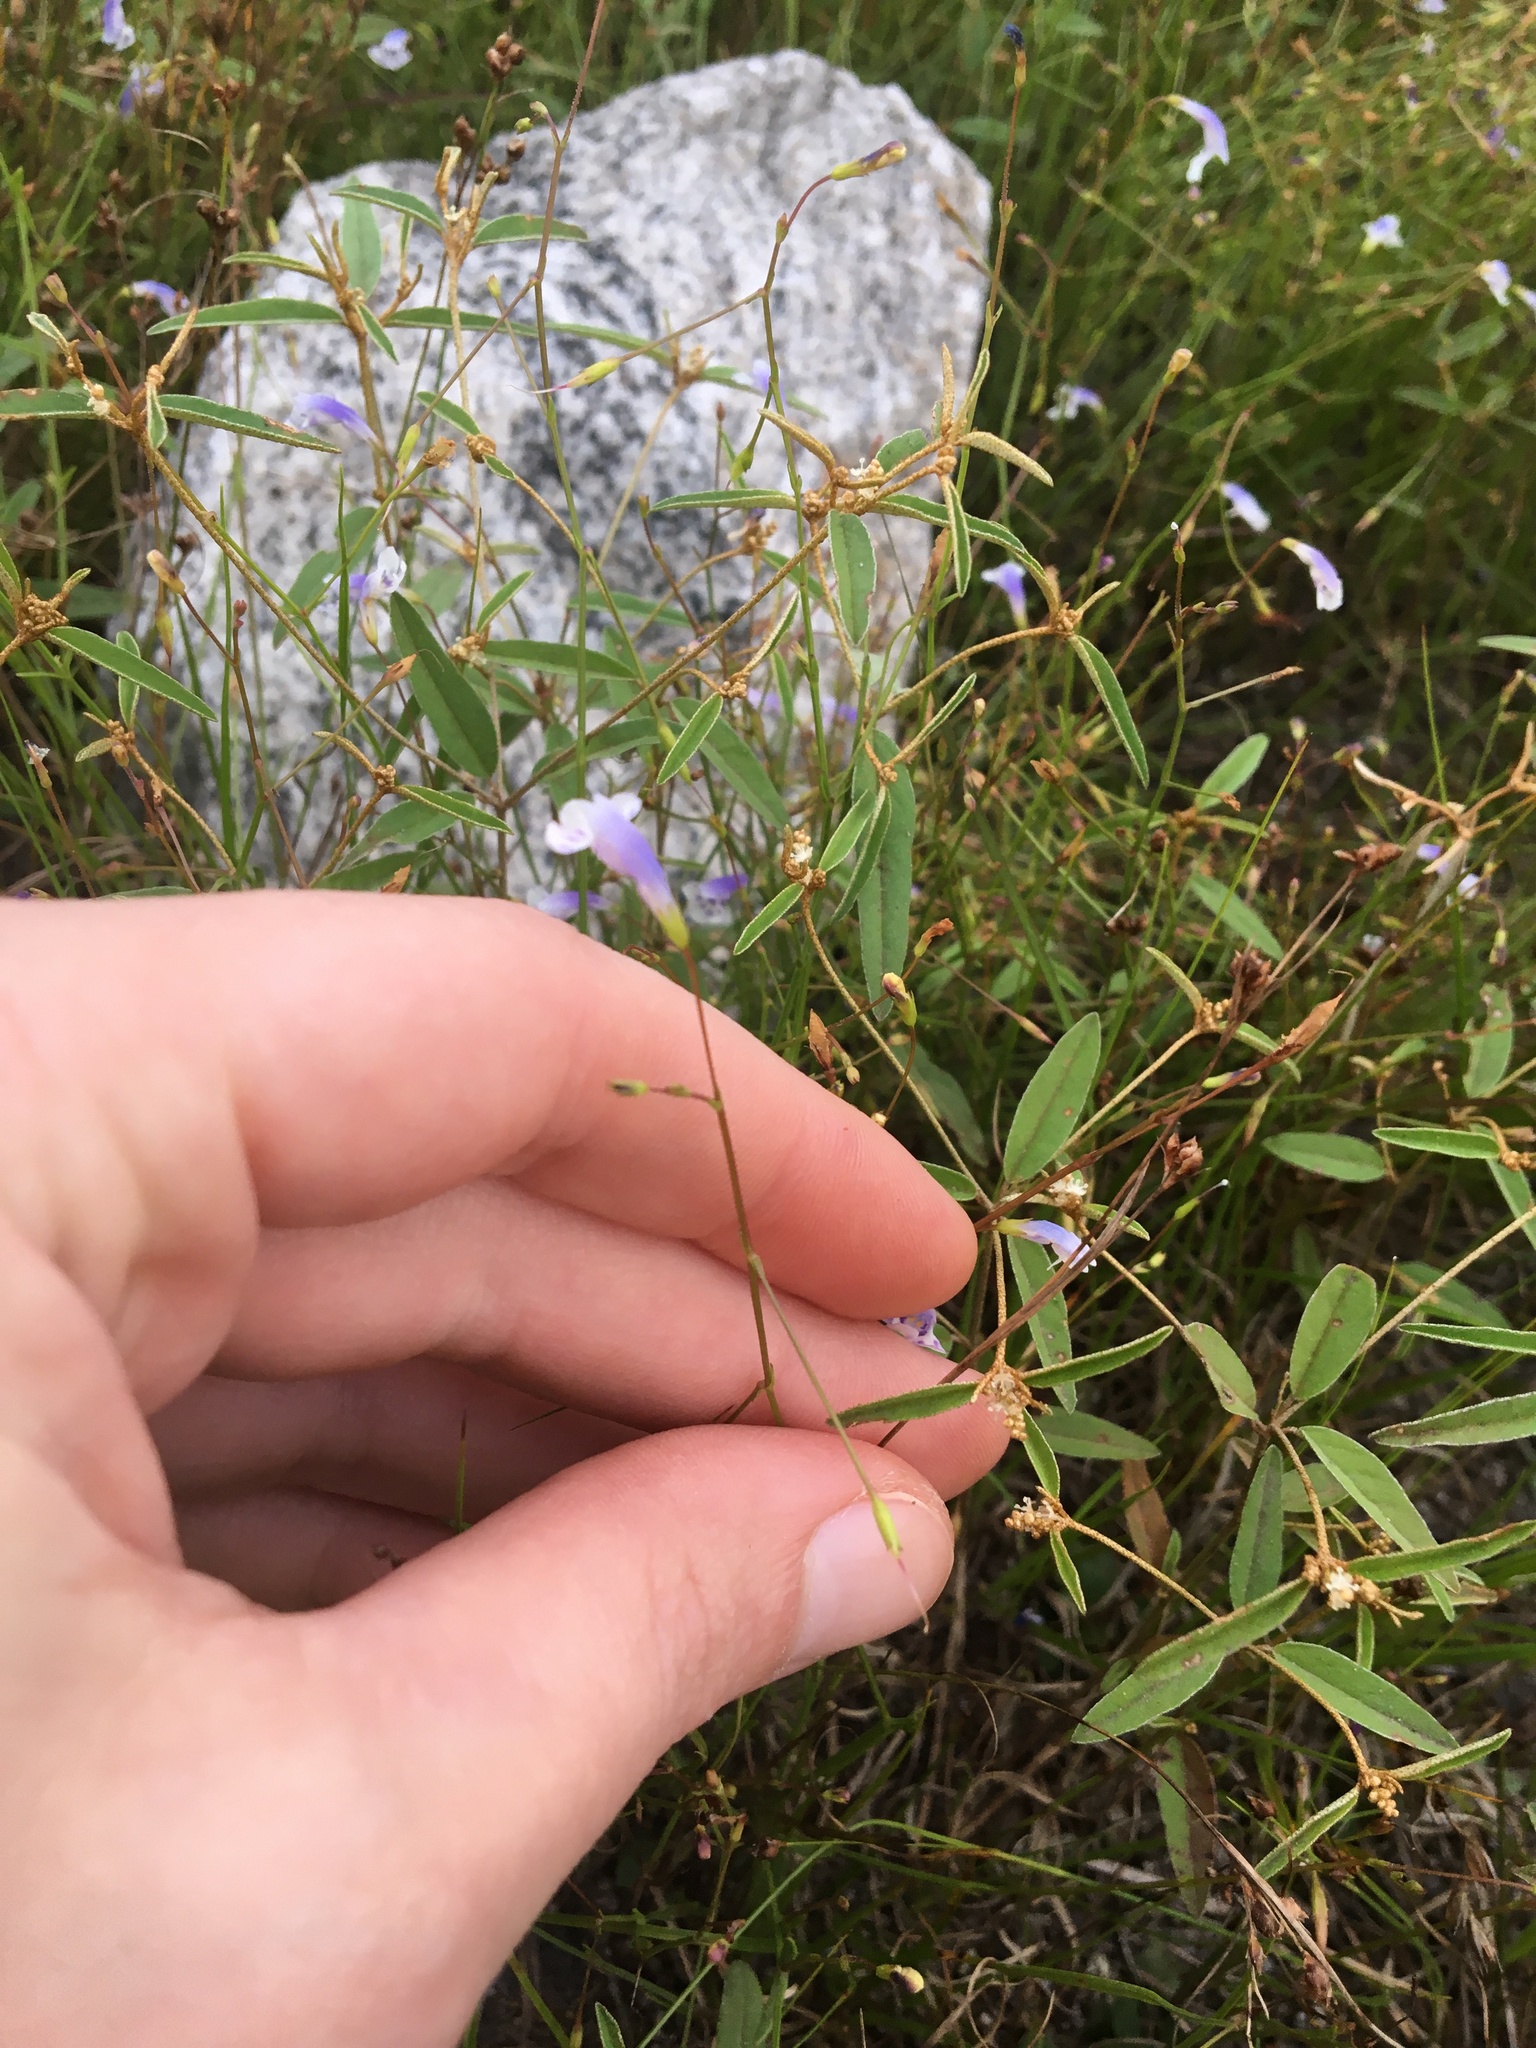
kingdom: Plantae
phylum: Tracheophyta
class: Magnoliopsida
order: Lamiales
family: Linderniaceae
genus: Lindernia
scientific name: Lindernia monticola
